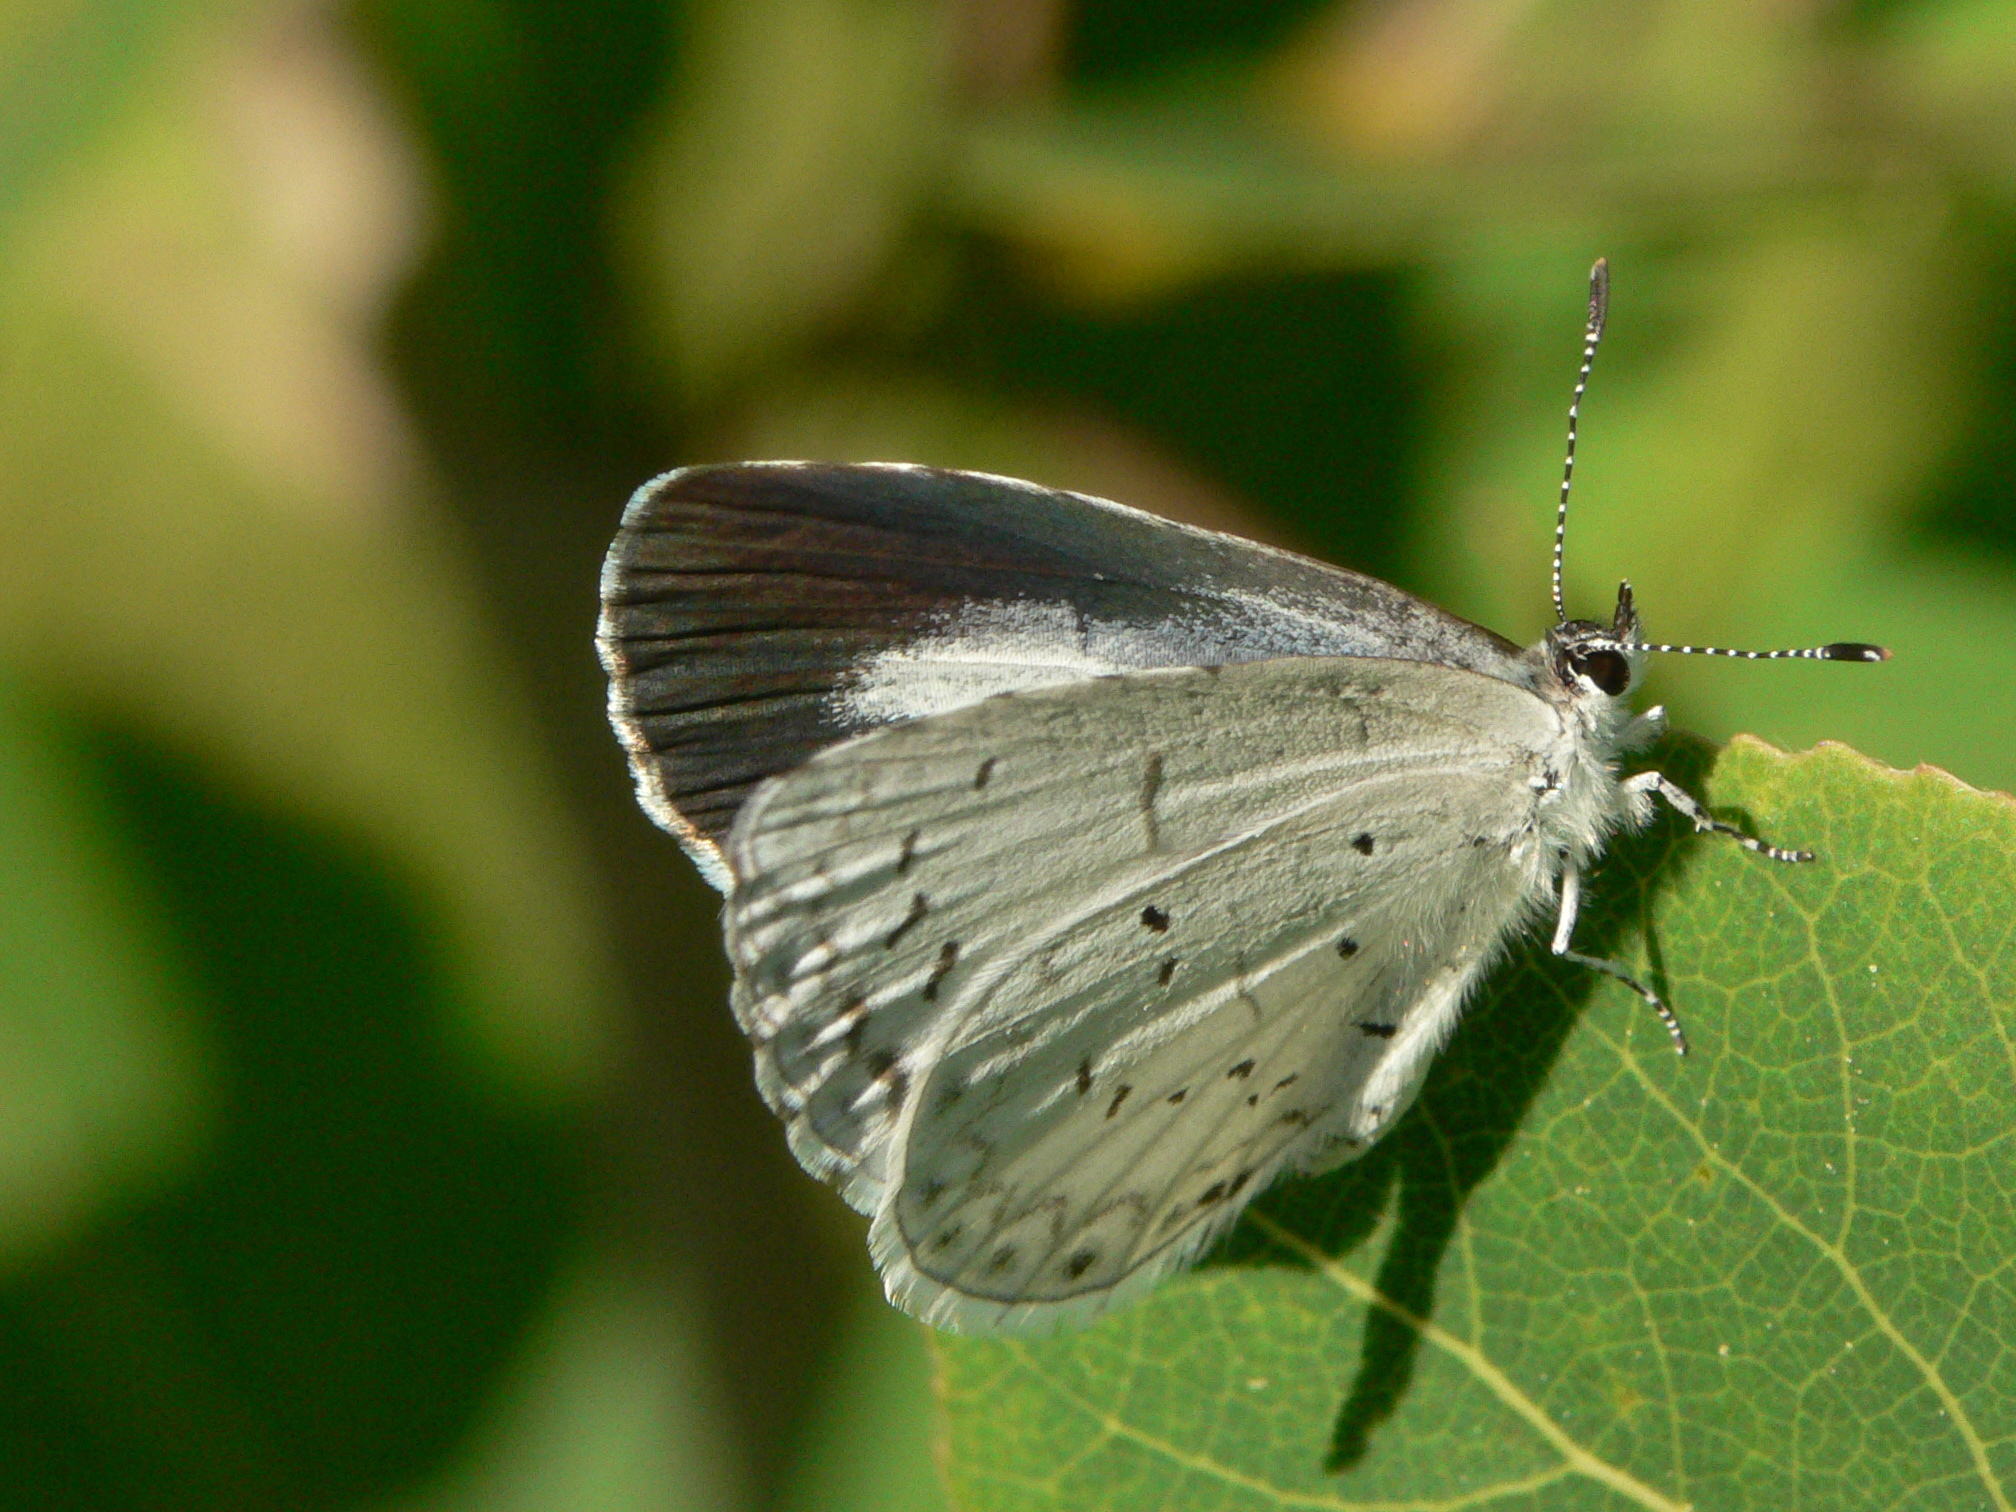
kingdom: Animalia
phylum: Arthropoda
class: Insecta
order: Lepidoptera
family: Lycaenidae
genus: Cyaniris
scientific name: Cyaniris neglecta
